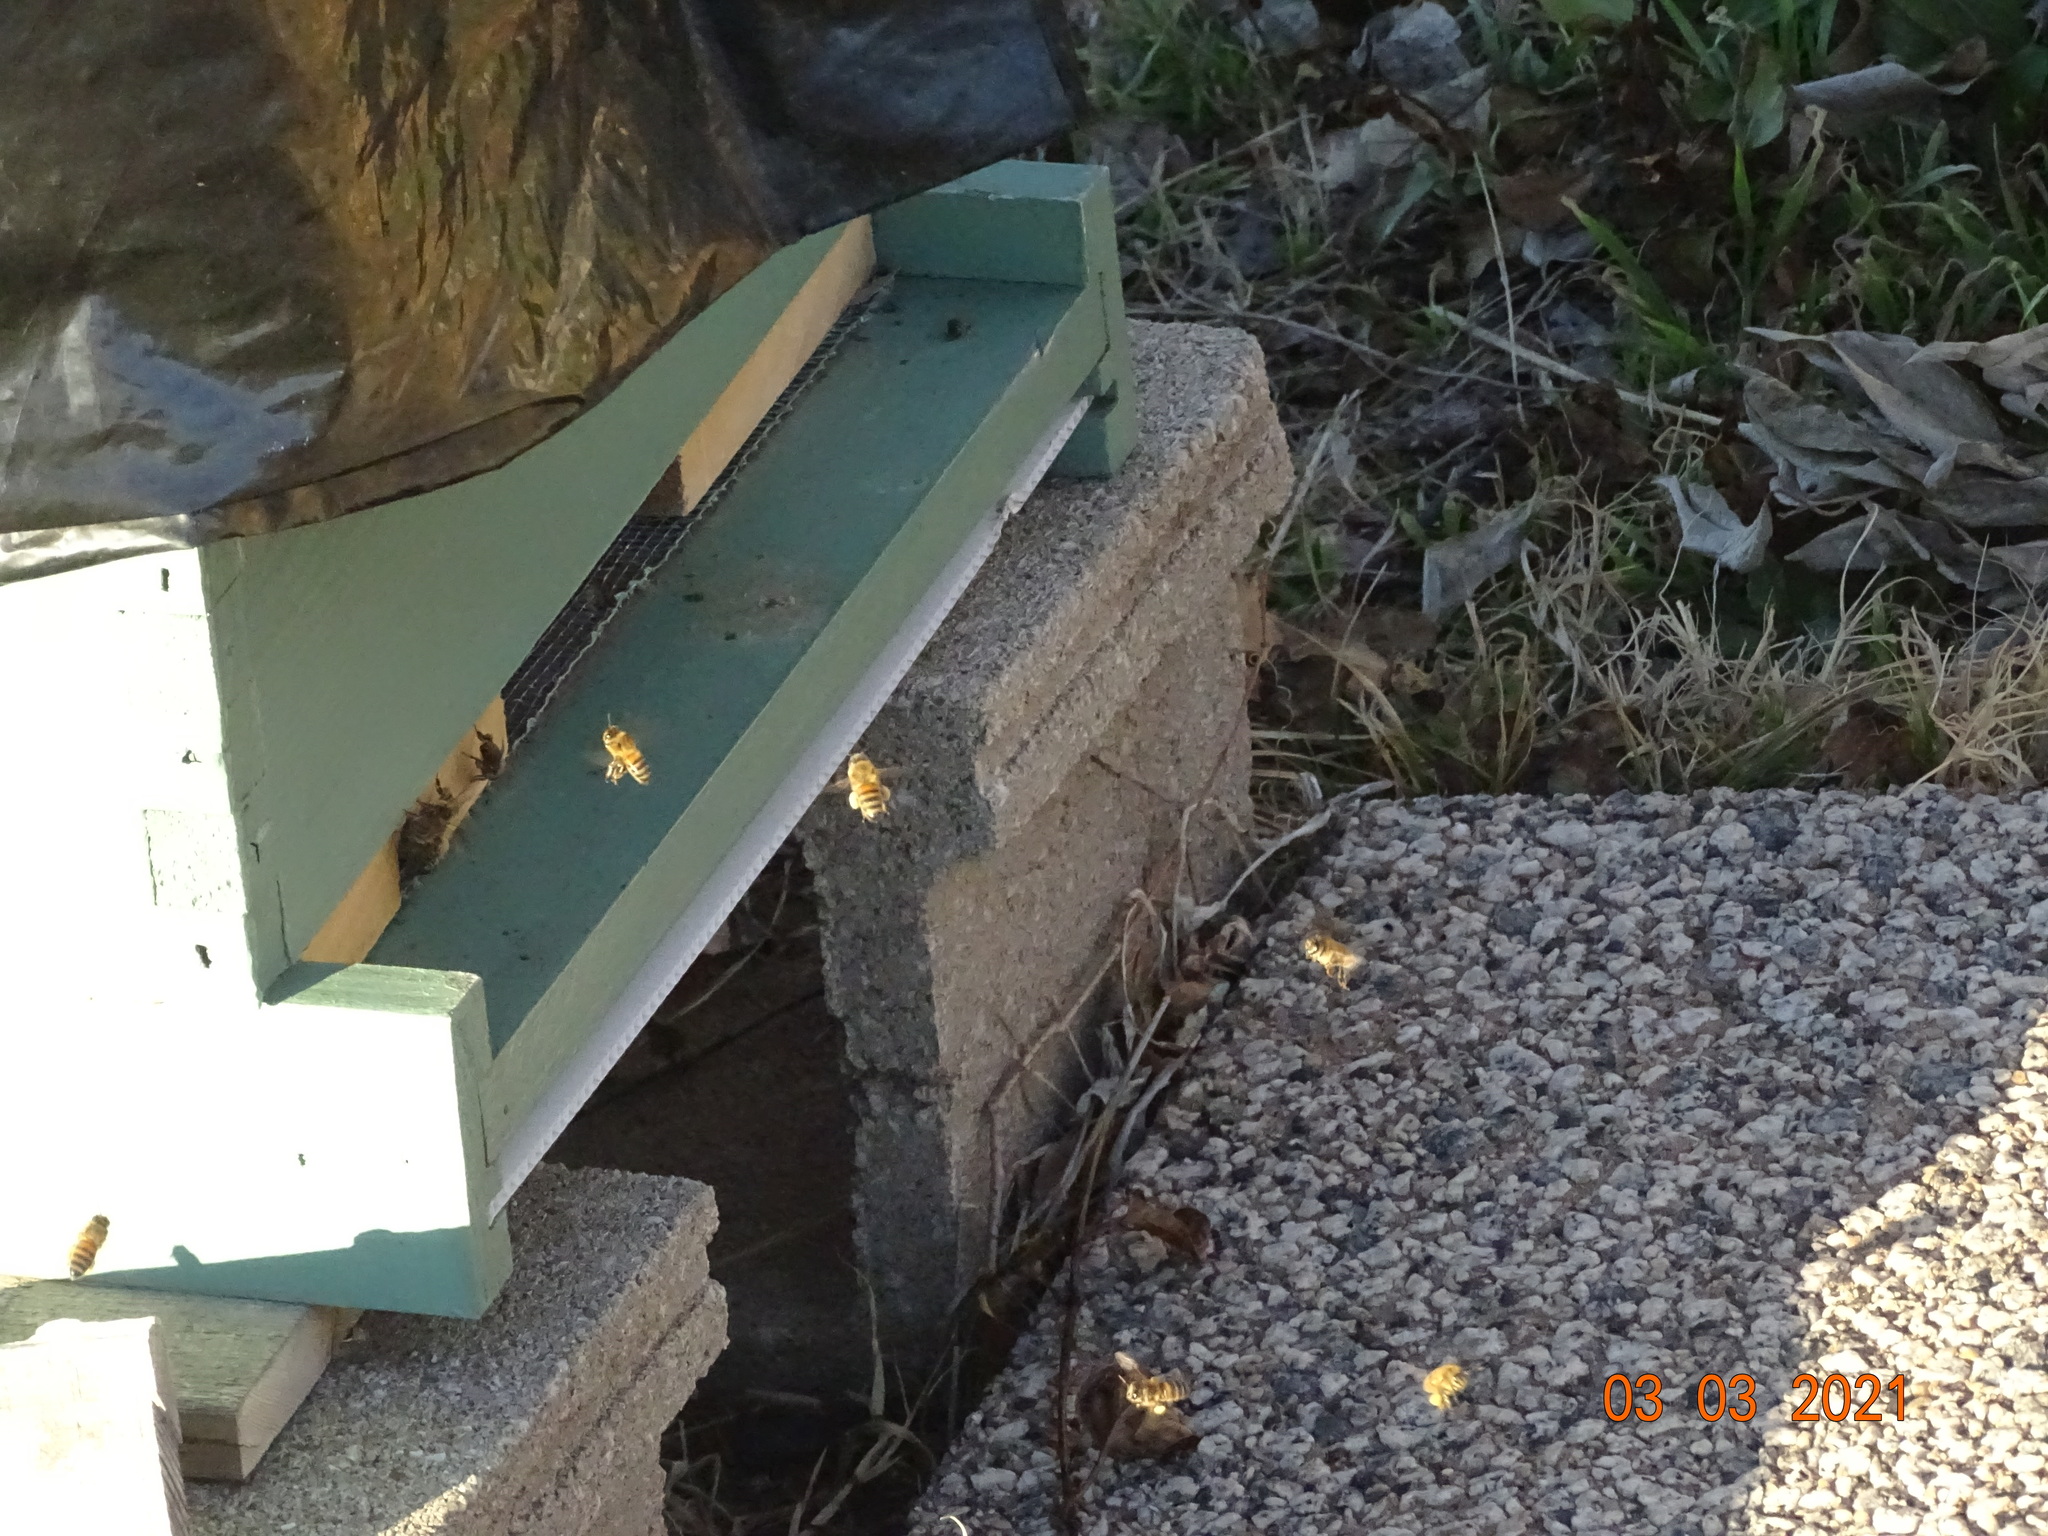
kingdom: Animalia
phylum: Arthropoda
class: Insecta
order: Hymenoptera
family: Apidae
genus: Apis
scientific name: Apis mellifera
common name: Honey bee
